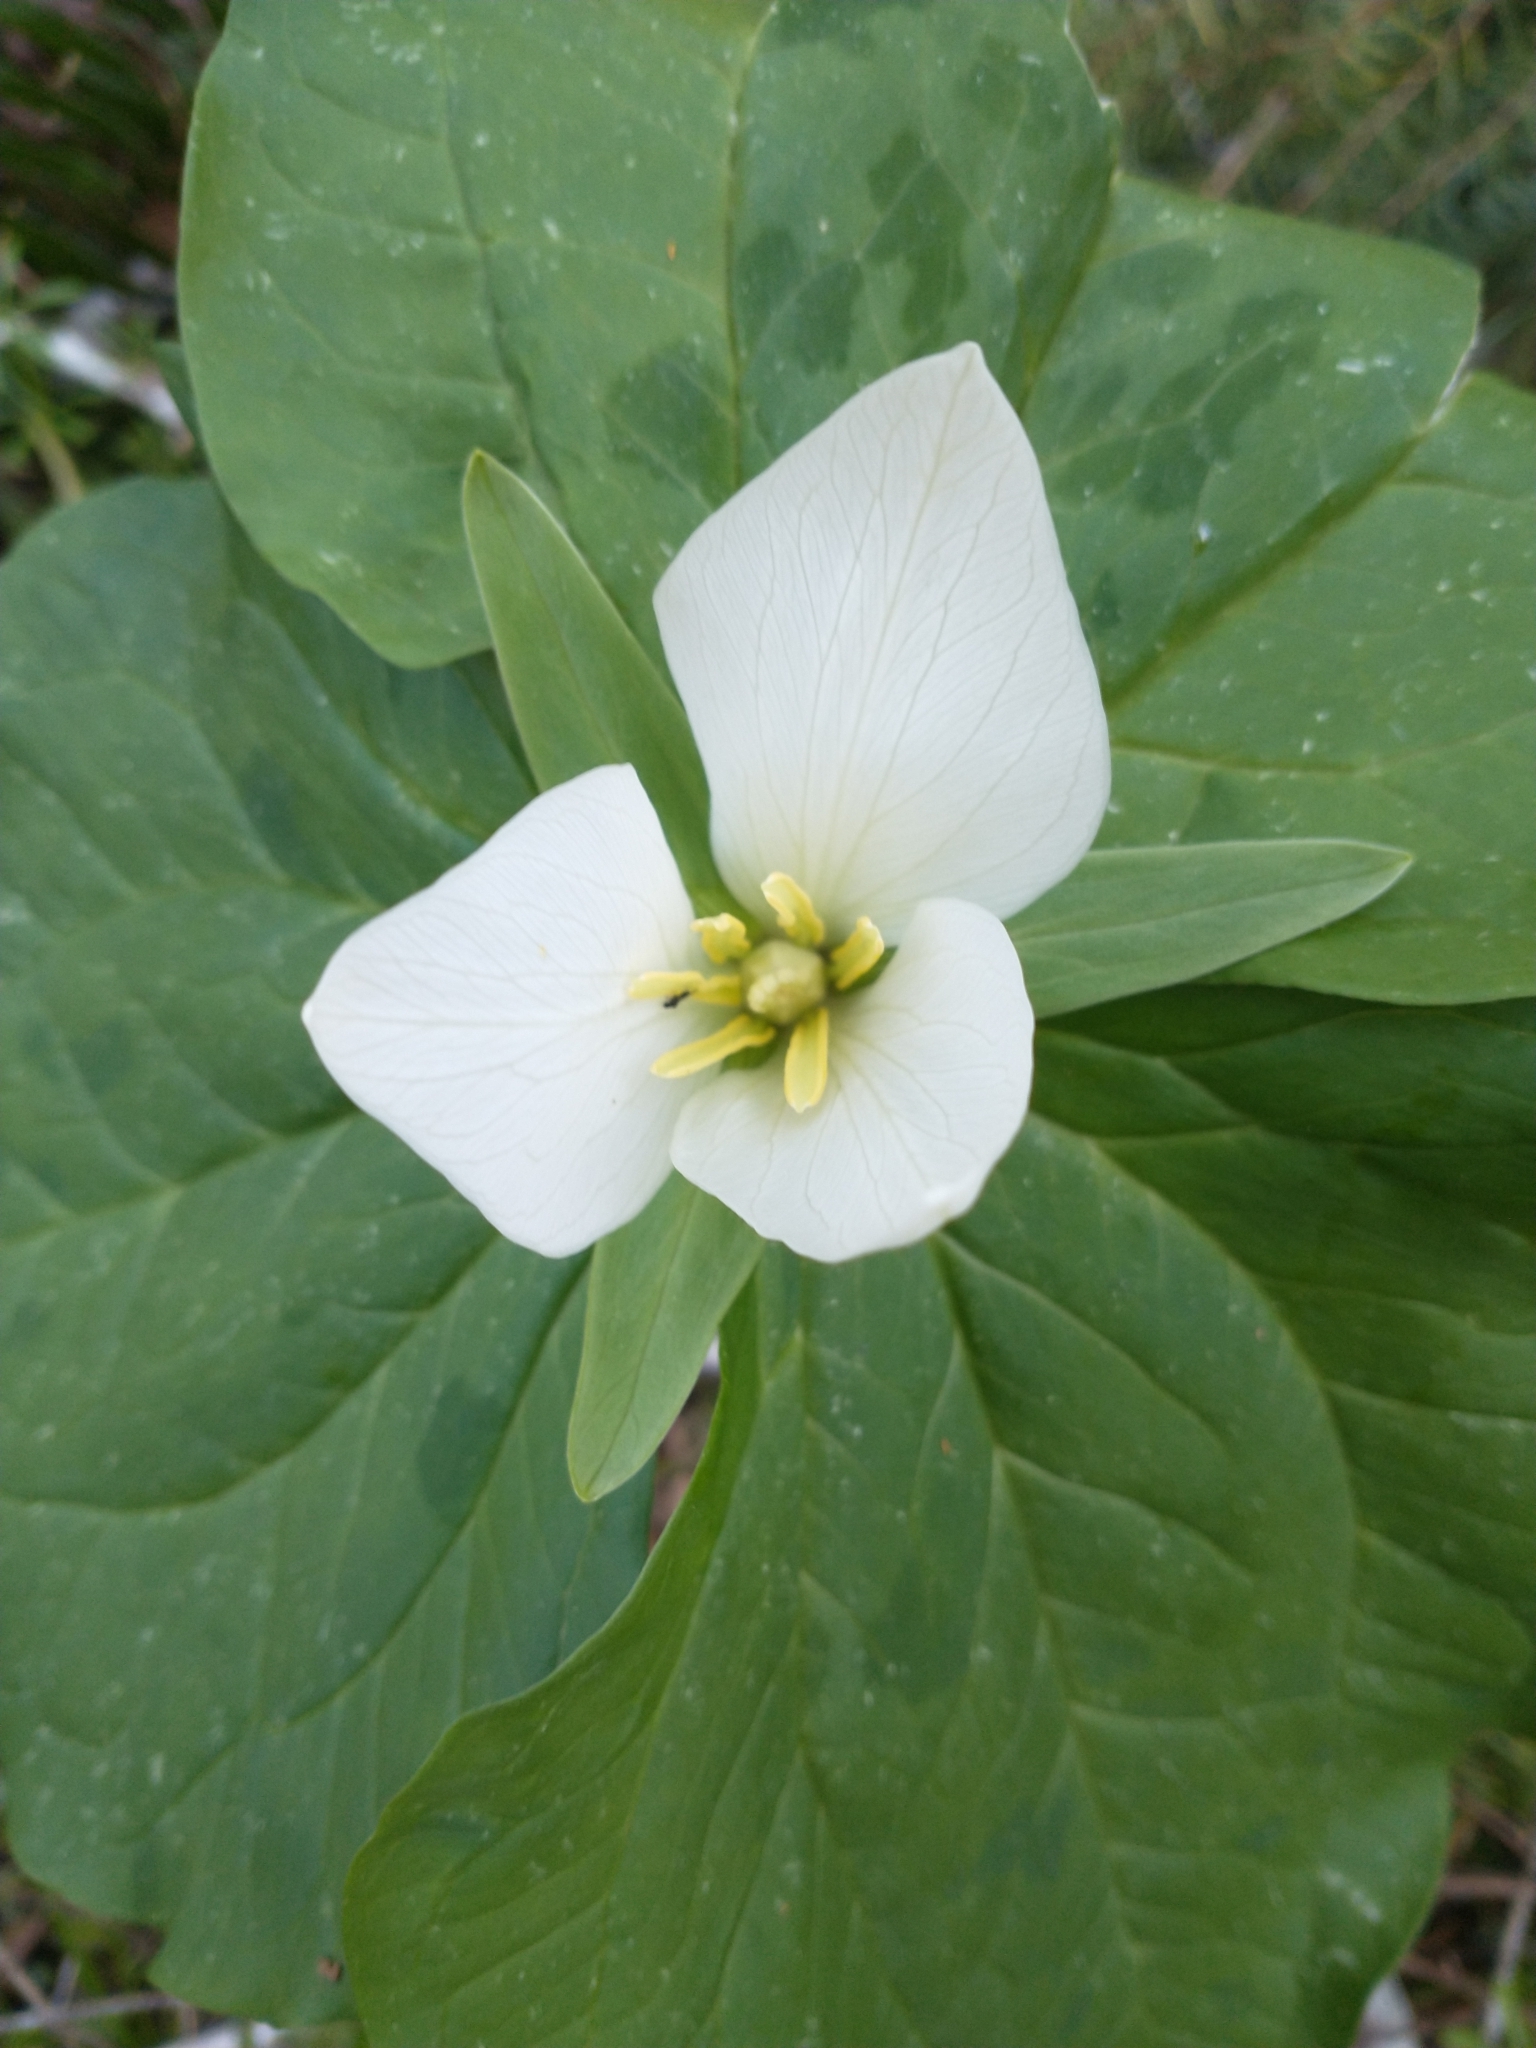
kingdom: Plantae
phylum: Tracheophyta
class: Liliopsida
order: Liliales
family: Melanthiaceae
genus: Trillium
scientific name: Trillium albidum
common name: Freeman's trillium
